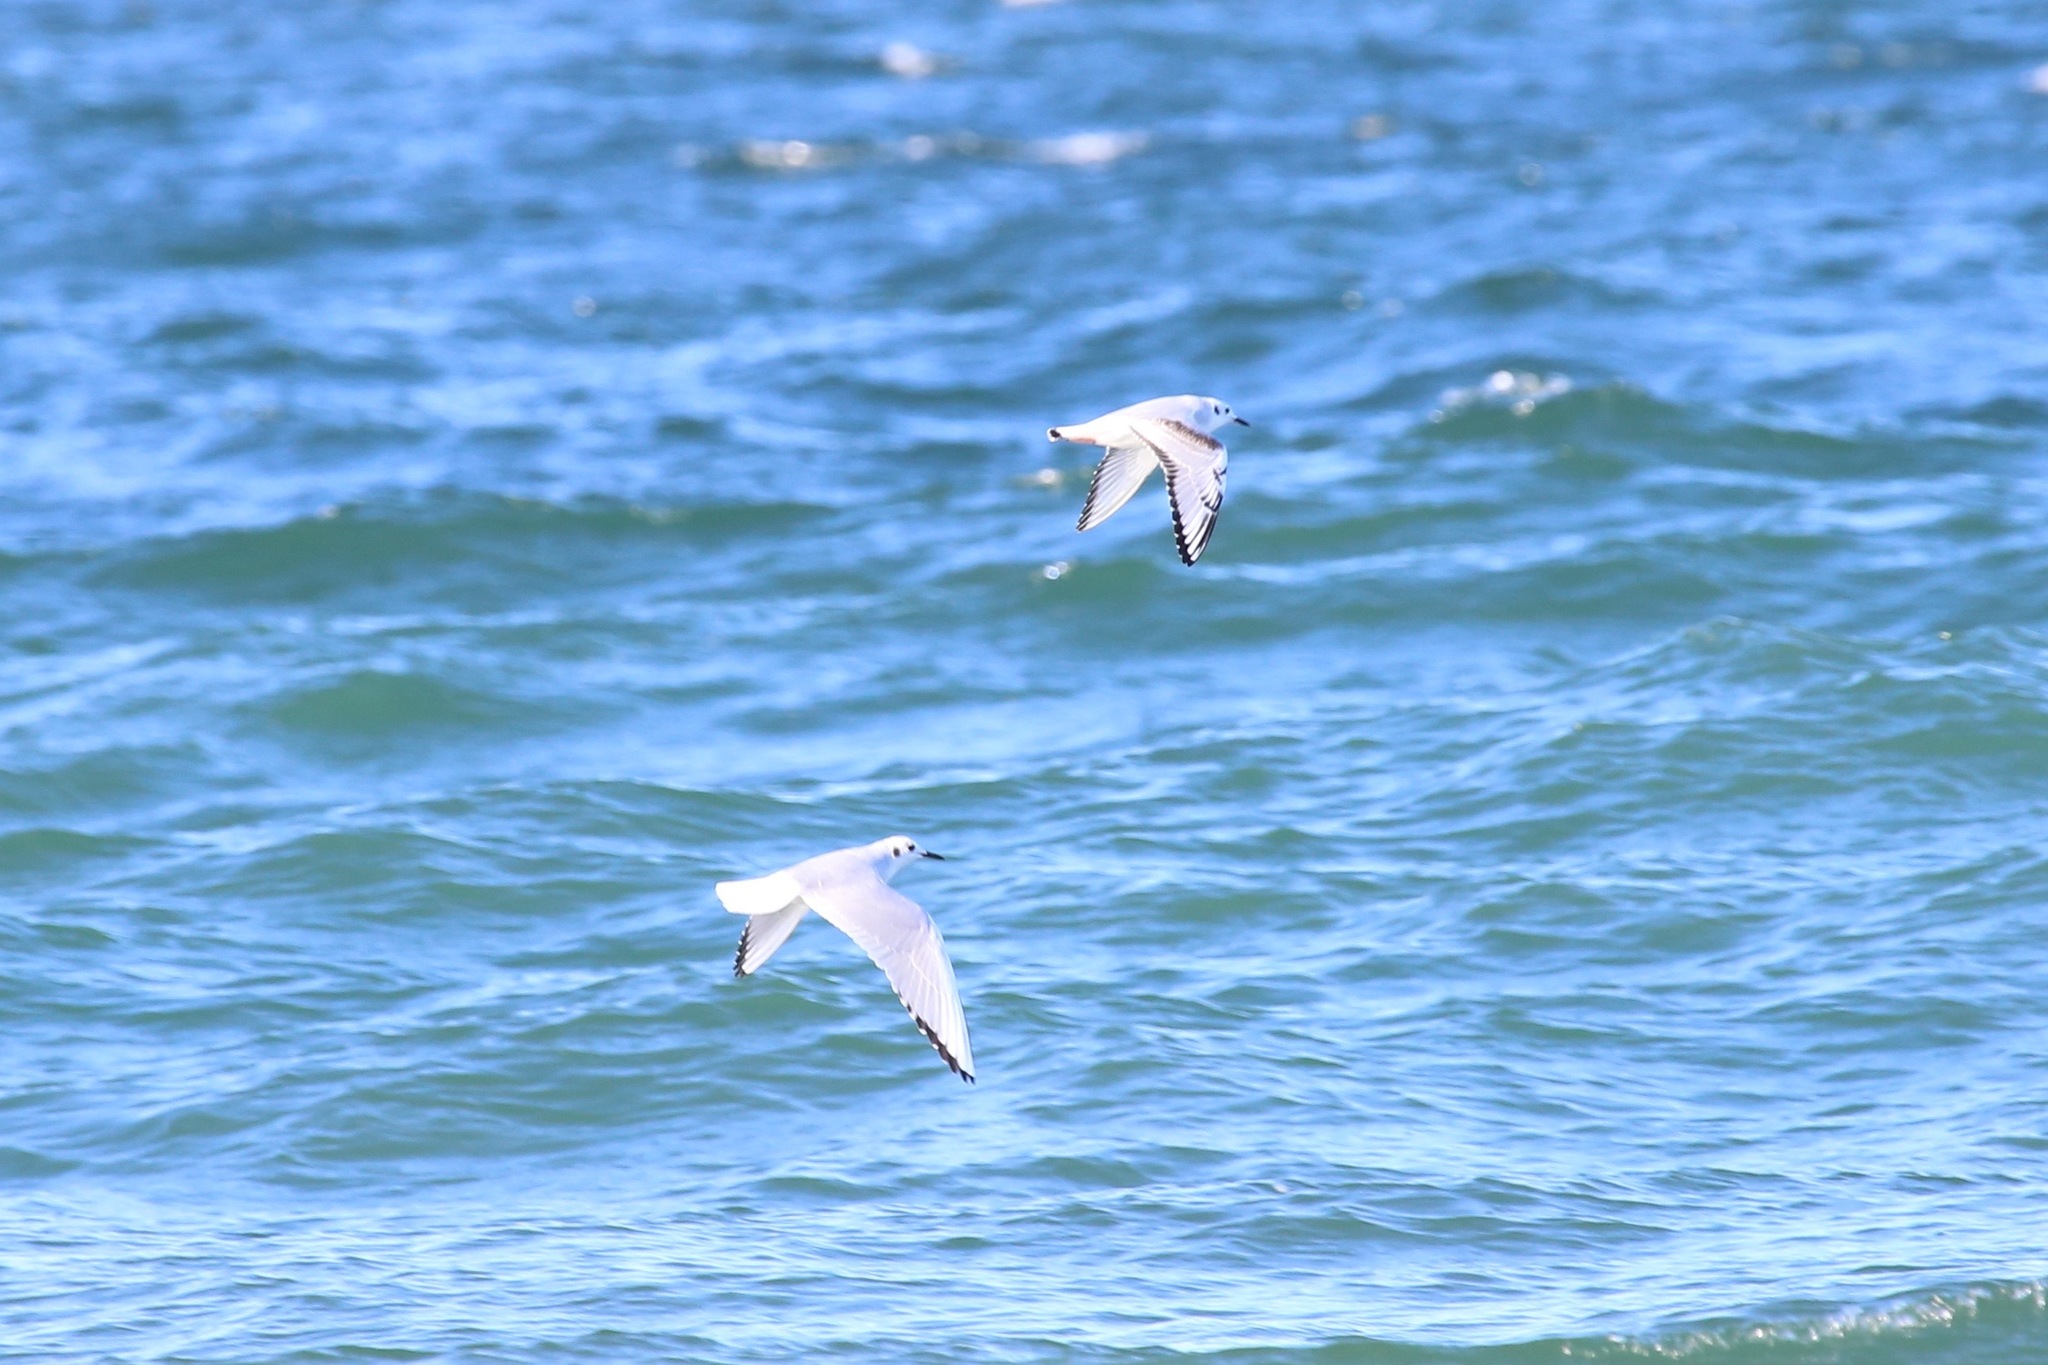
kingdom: Animalia
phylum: Chordata
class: Aves
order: Charadriiformes
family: Laridae
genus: Chroicocephalus
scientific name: Chroicocephalus philadelphia
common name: Bonaparte's gull
